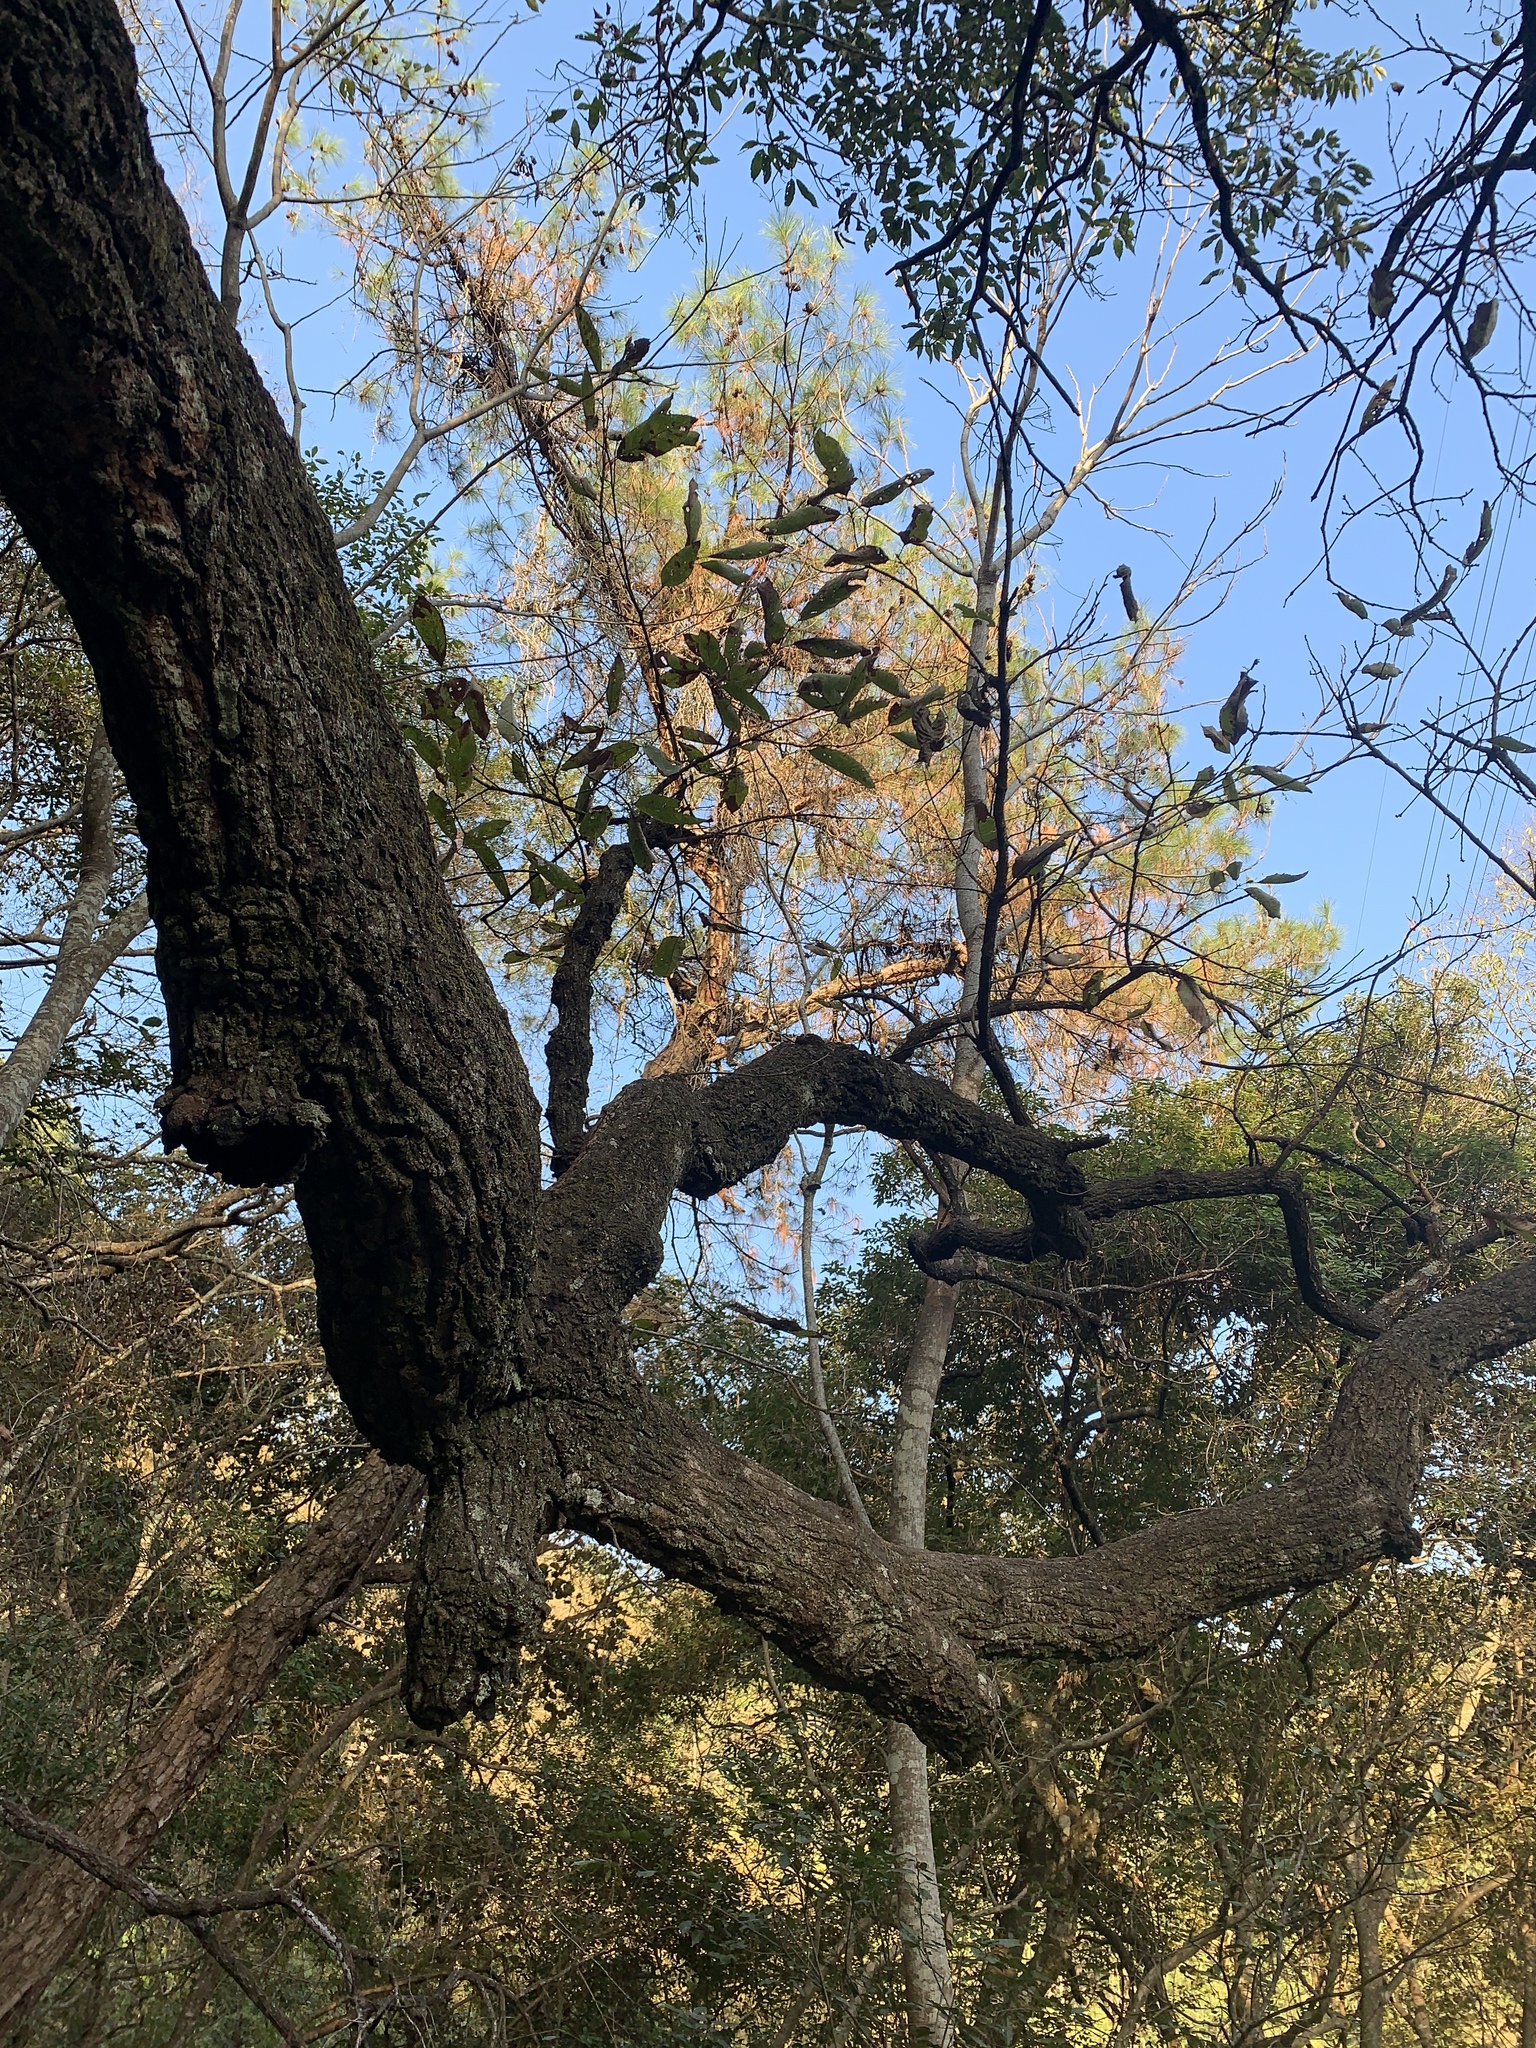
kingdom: Plantae
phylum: Tracheophyta
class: Magnoliopsida
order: Fagales
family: Fagaceae
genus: Quercus
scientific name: Quercus variabilis
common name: Chinese cork oak
